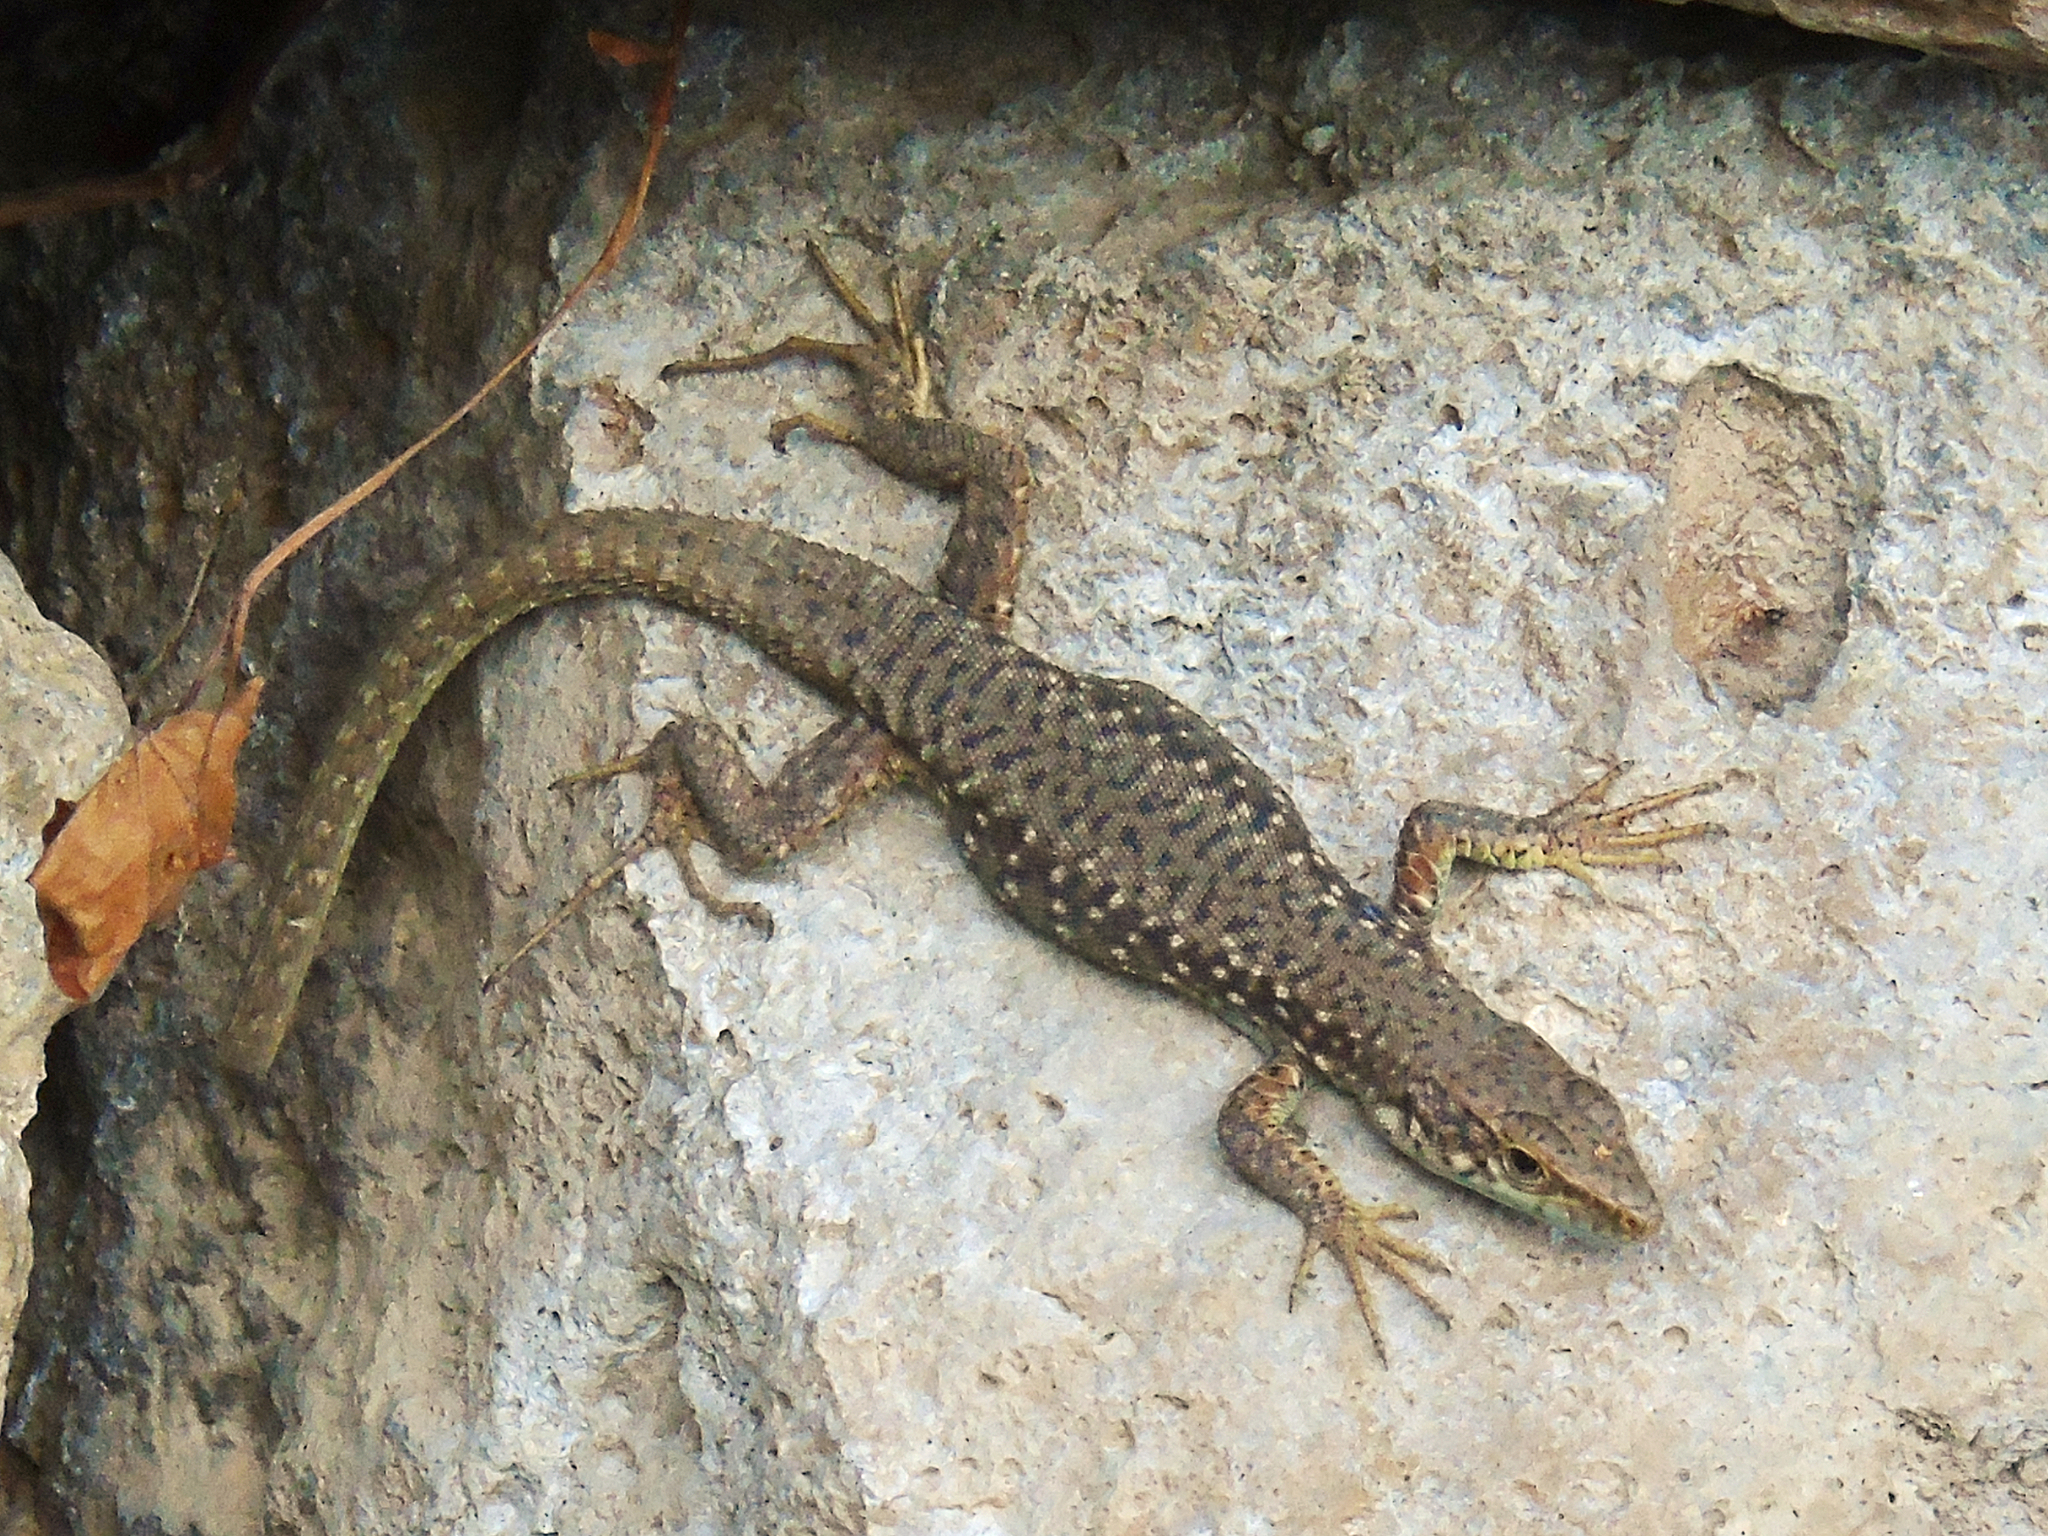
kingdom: Animalia
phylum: Chordata
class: Squamata
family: Lacertidae
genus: Darevskia
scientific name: Darevskia rudis
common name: Spiny-tailed lizard
